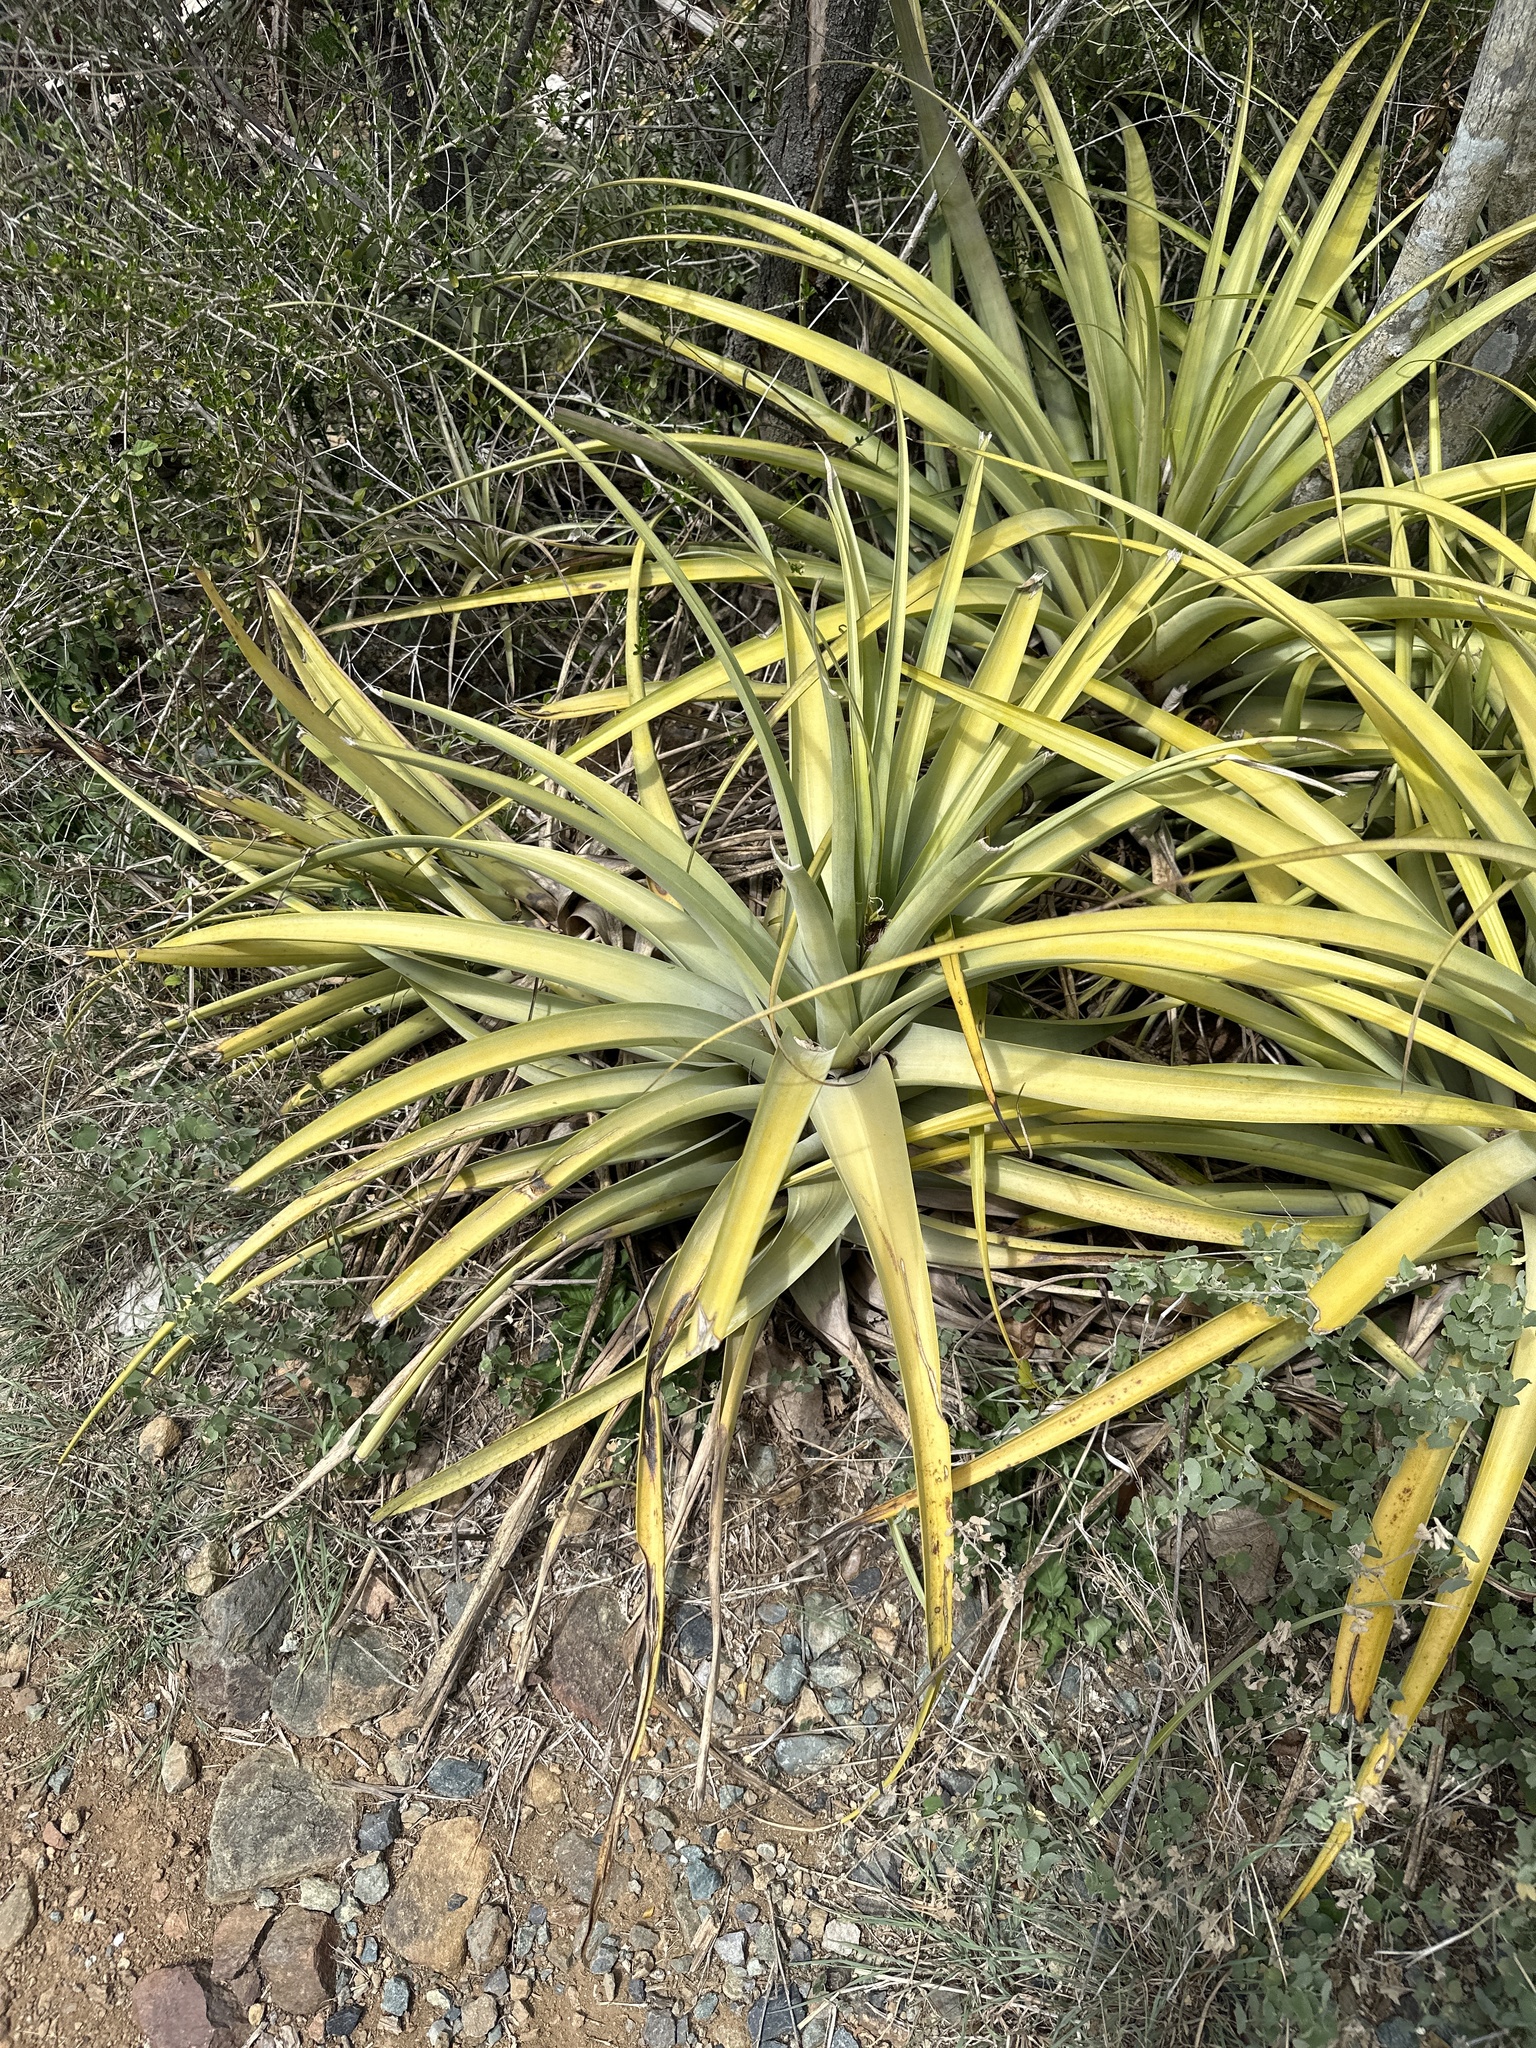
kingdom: Plantae
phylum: Tracheophyta
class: Liliopsida
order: Poales
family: Bromeliaceae
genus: Tillandsia
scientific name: Tillandsia utriculata
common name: Wild pine
